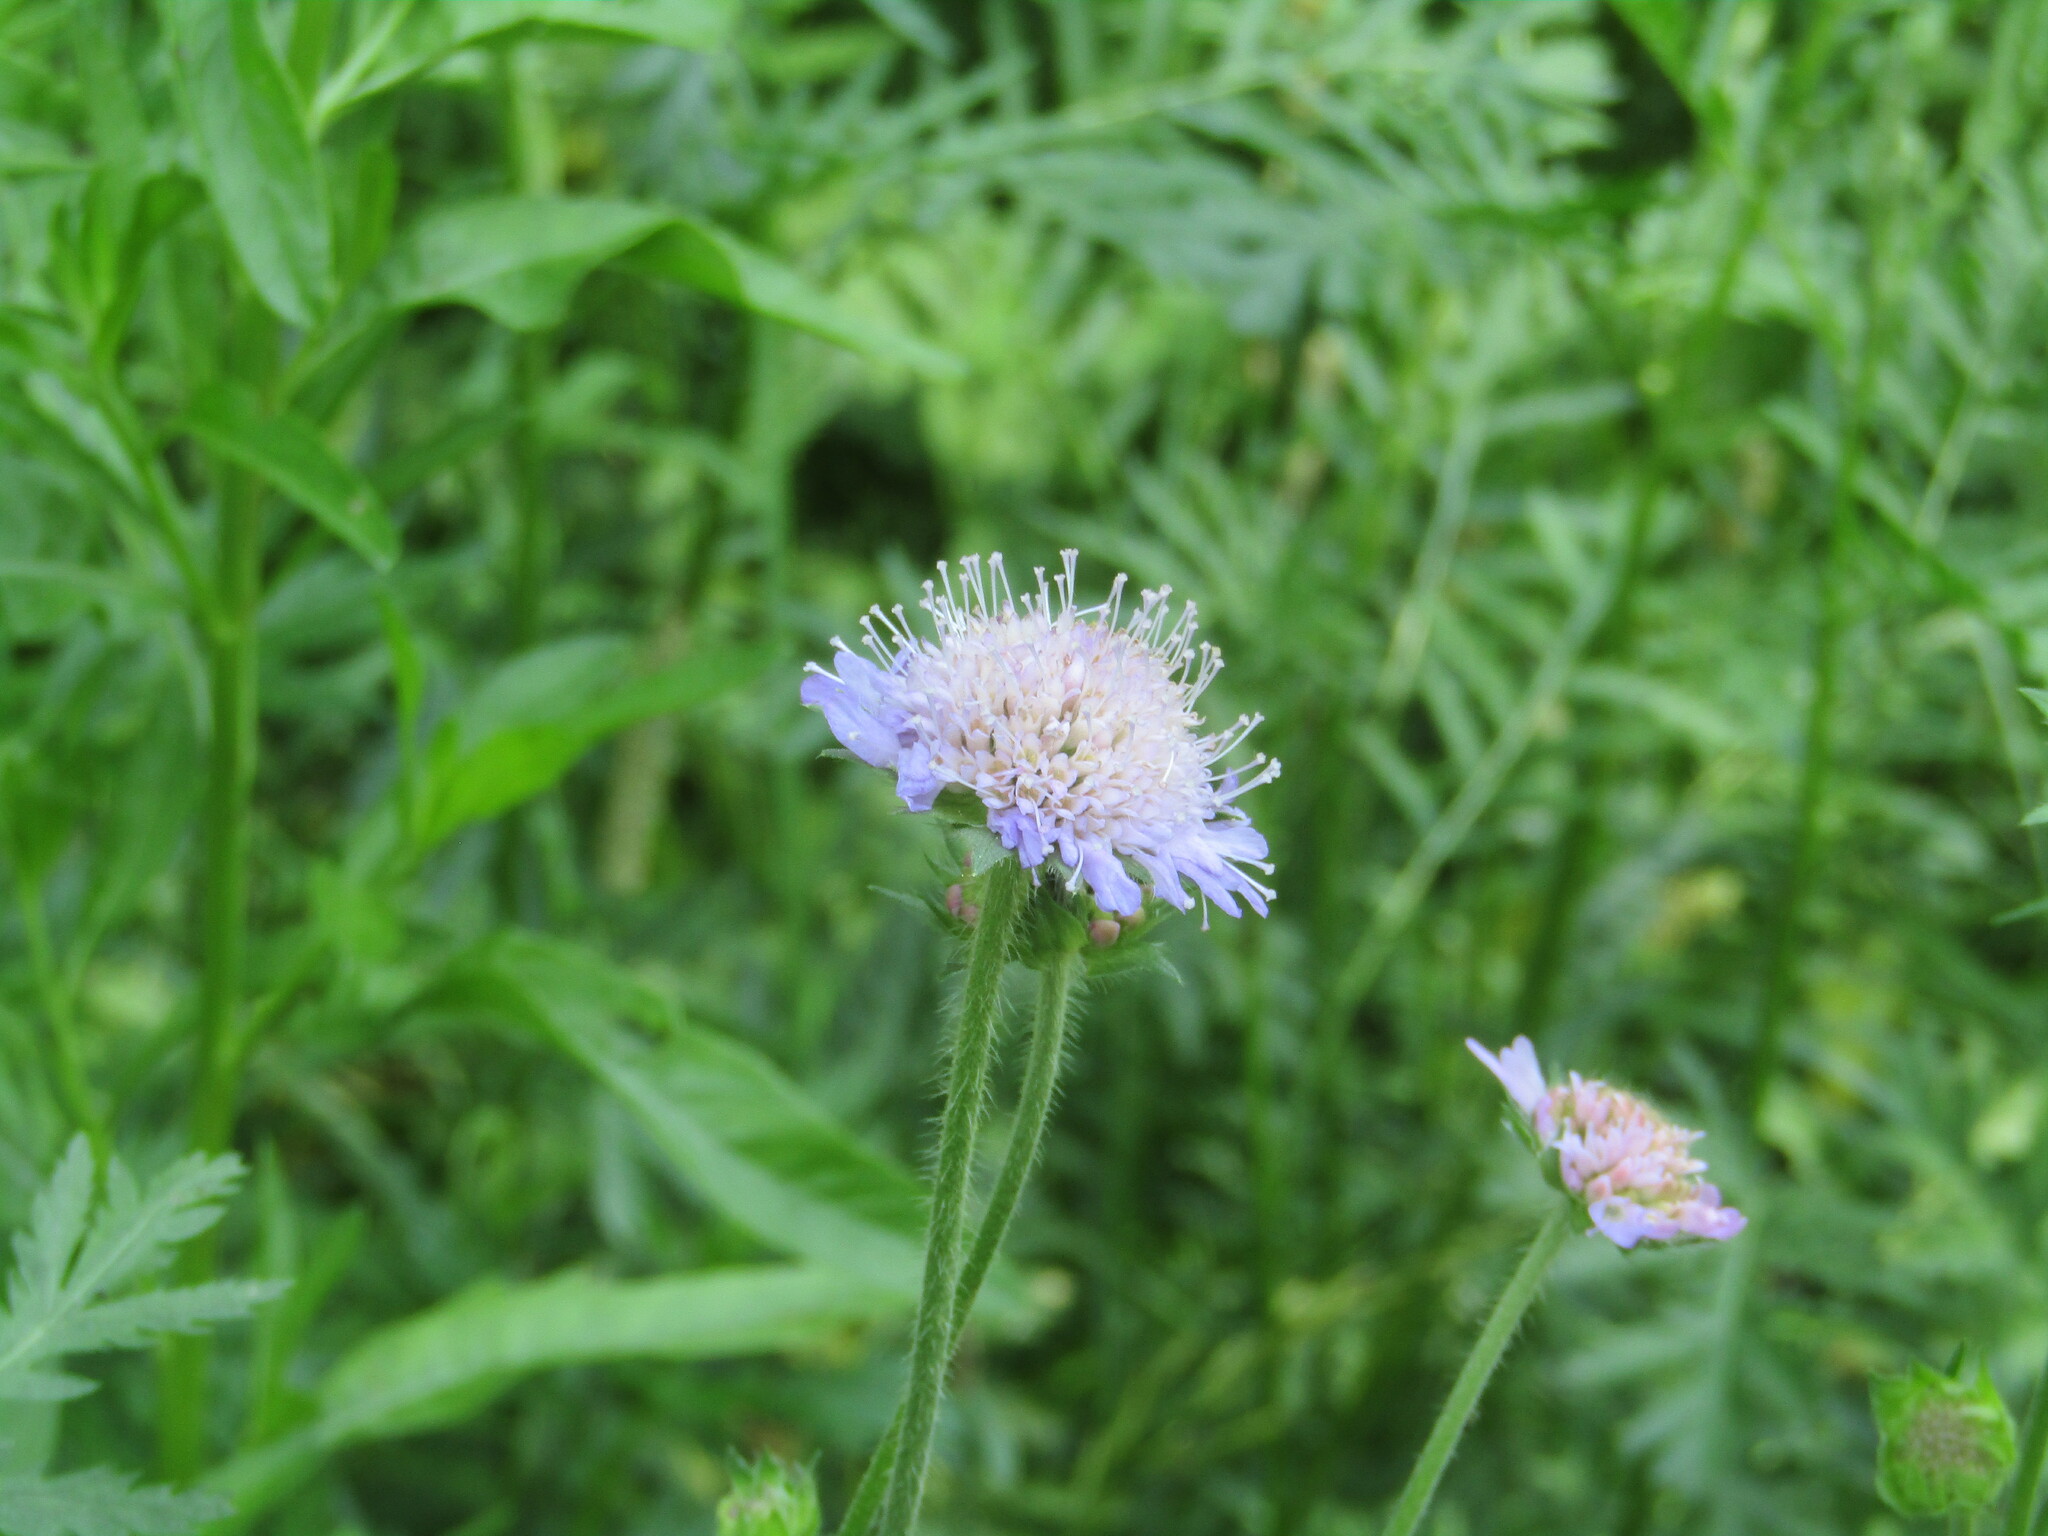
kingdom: Plantae
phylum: Tracheophyta
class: Magnoliopsida
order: Dipsacales
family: Caprifoliaceae
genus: Knautia
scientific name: Knautia arvensis
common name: Field scabiosa
